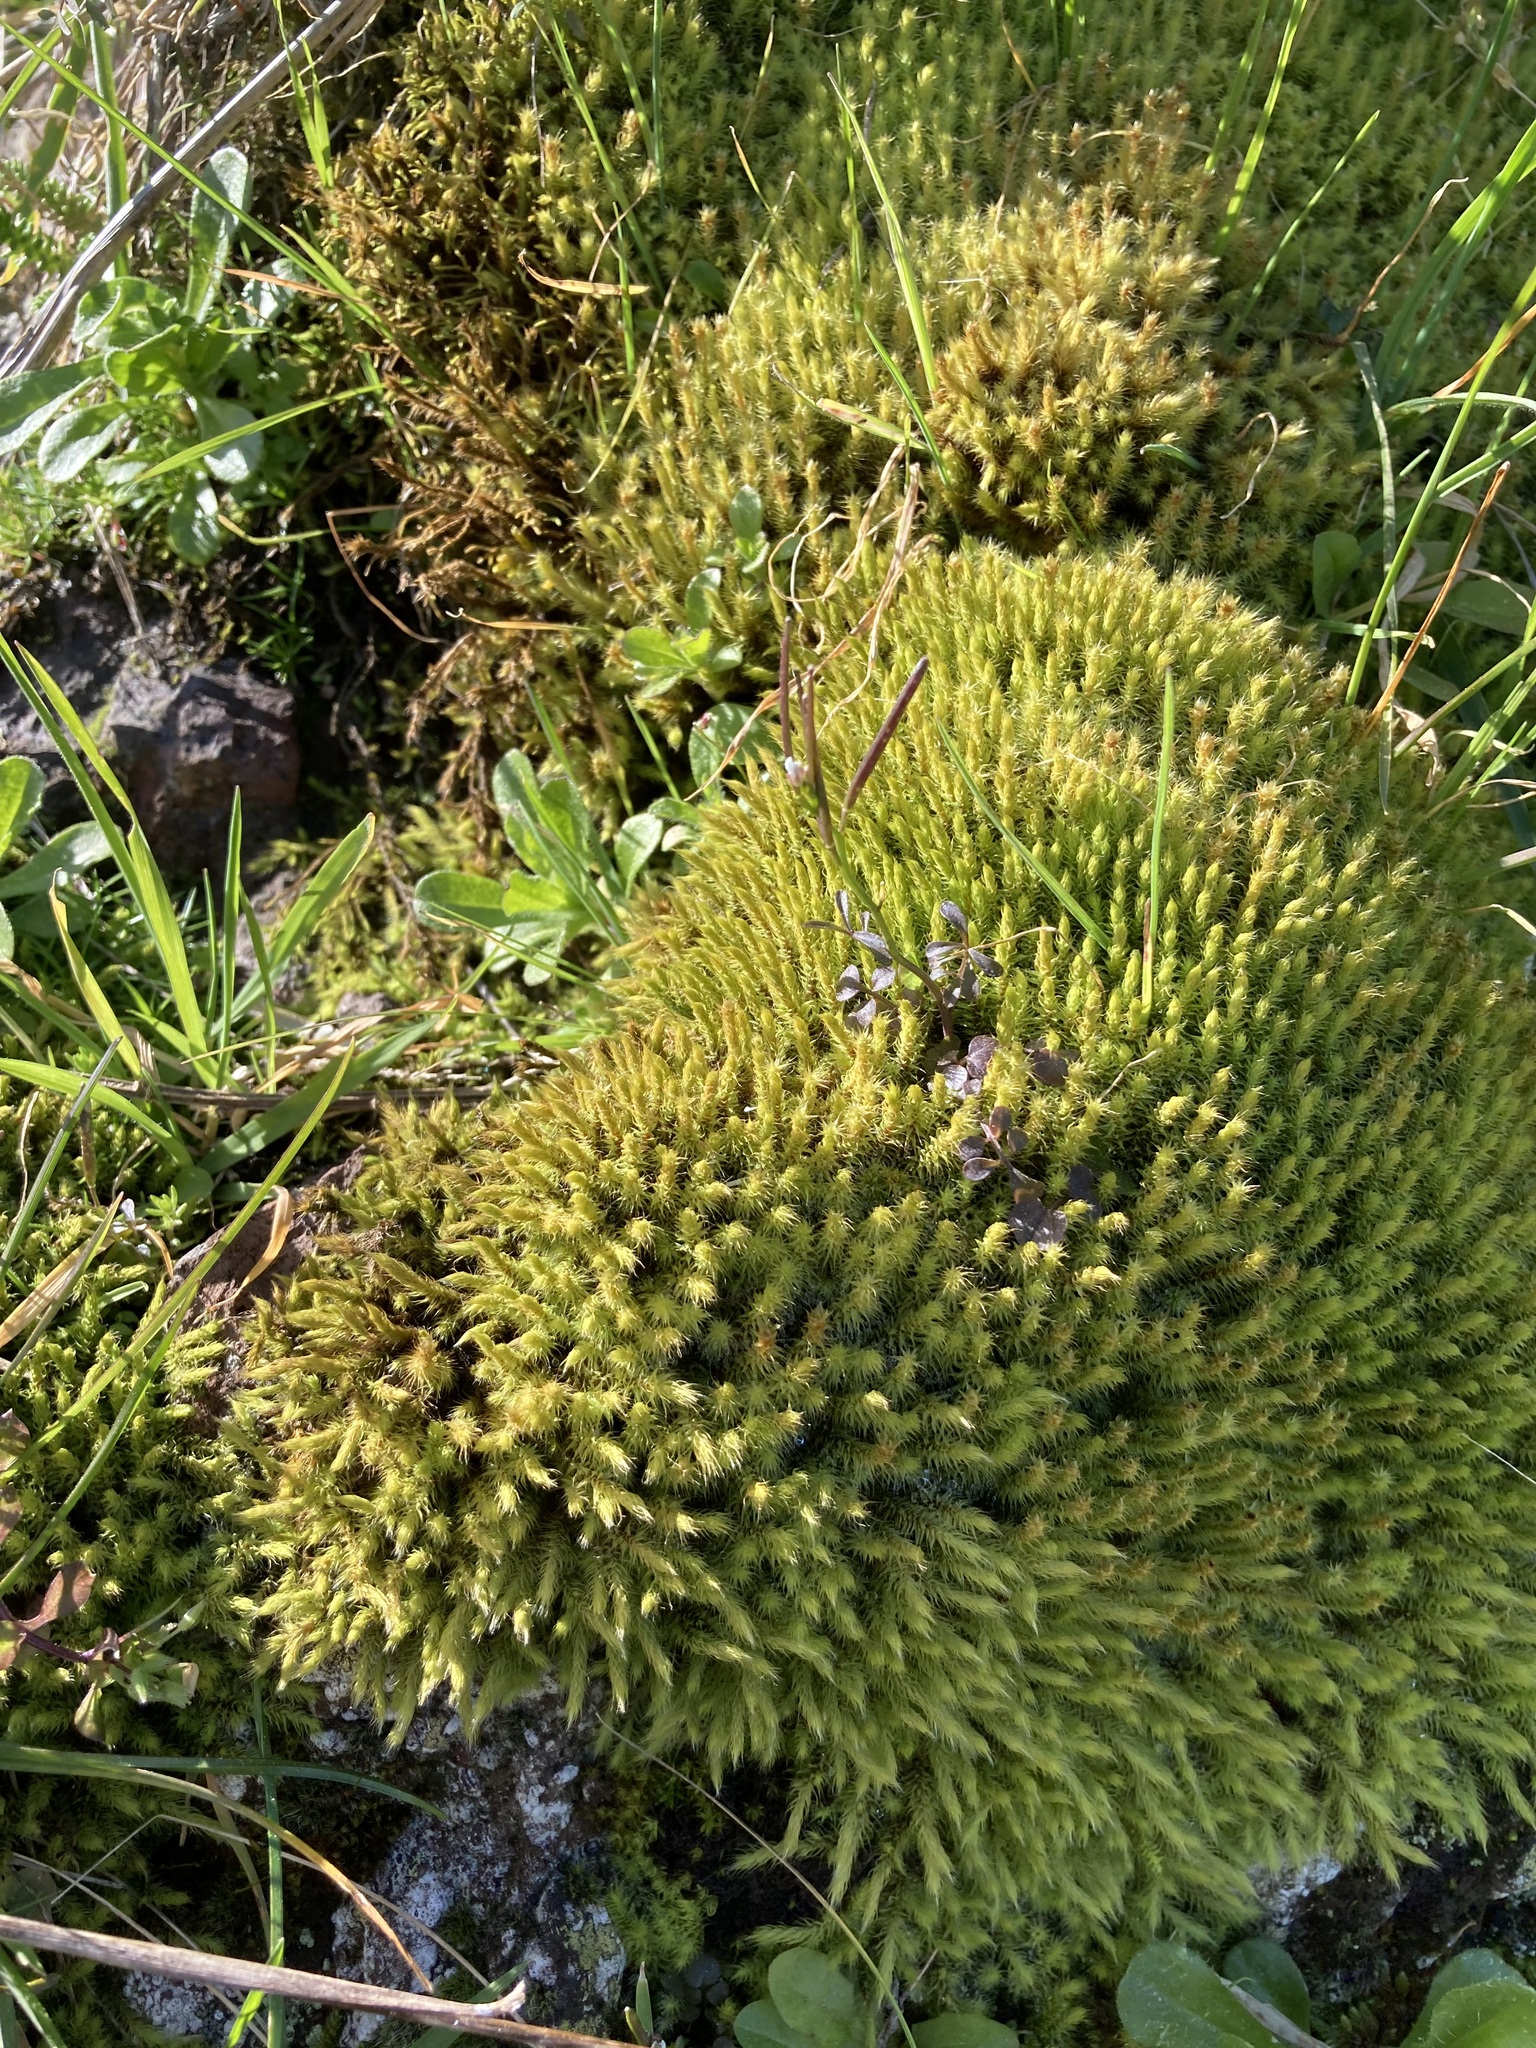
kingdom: Plantae
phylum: Bryophyta
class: Bryopsida
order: Bartramiales
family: Bartramiaceae
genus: Breutelia
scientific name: Breutelia affinis
